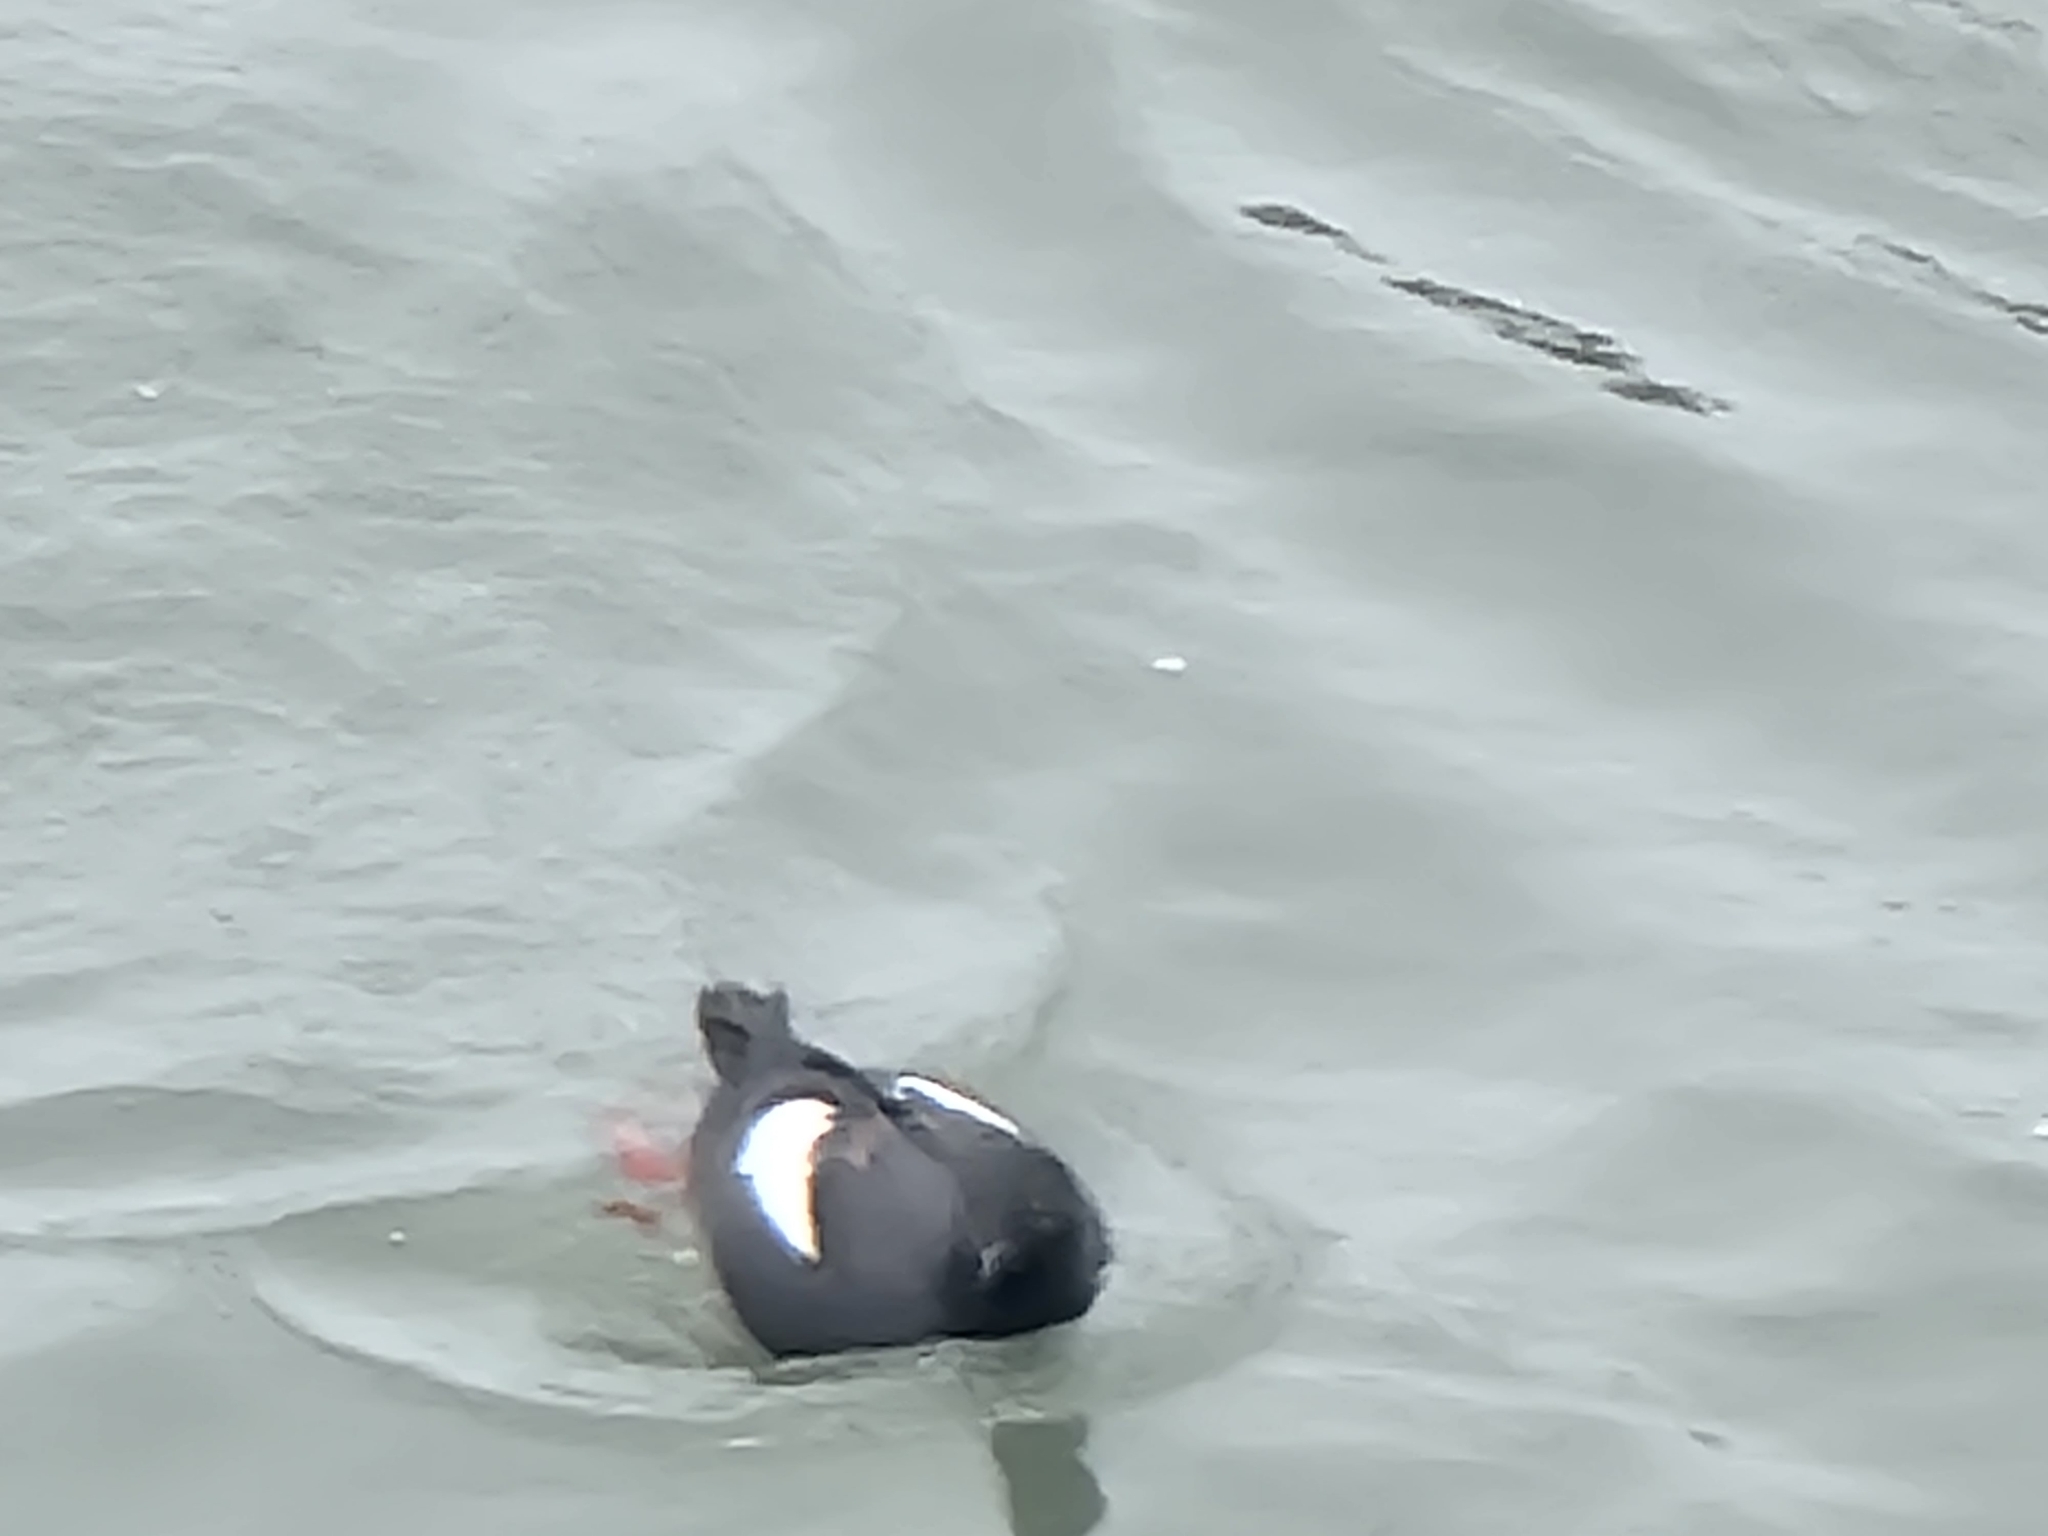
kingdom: Animalia
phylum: Chordata
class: Aves
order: Charadriiformes
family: Alcidae
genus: Cepphus
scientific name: Cepphus columba
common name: Pigeon guillemot
